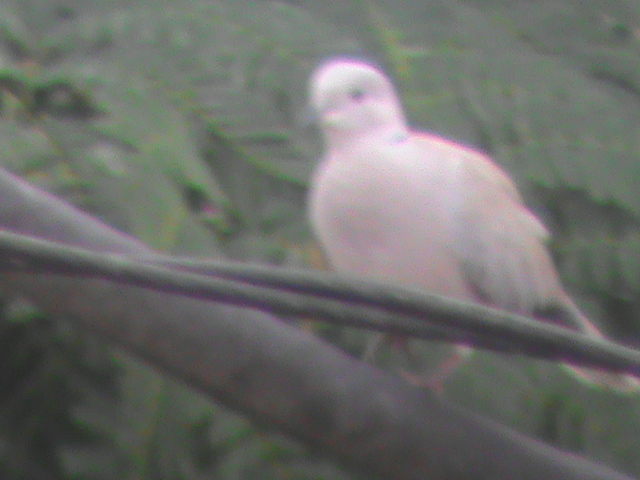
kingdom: Animalia
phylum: Chordata
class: Aves
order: Columbiformes
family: Columbidae
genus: Streptopelia
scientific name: Streptopelia decaocto
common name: Eurasian collared dove
